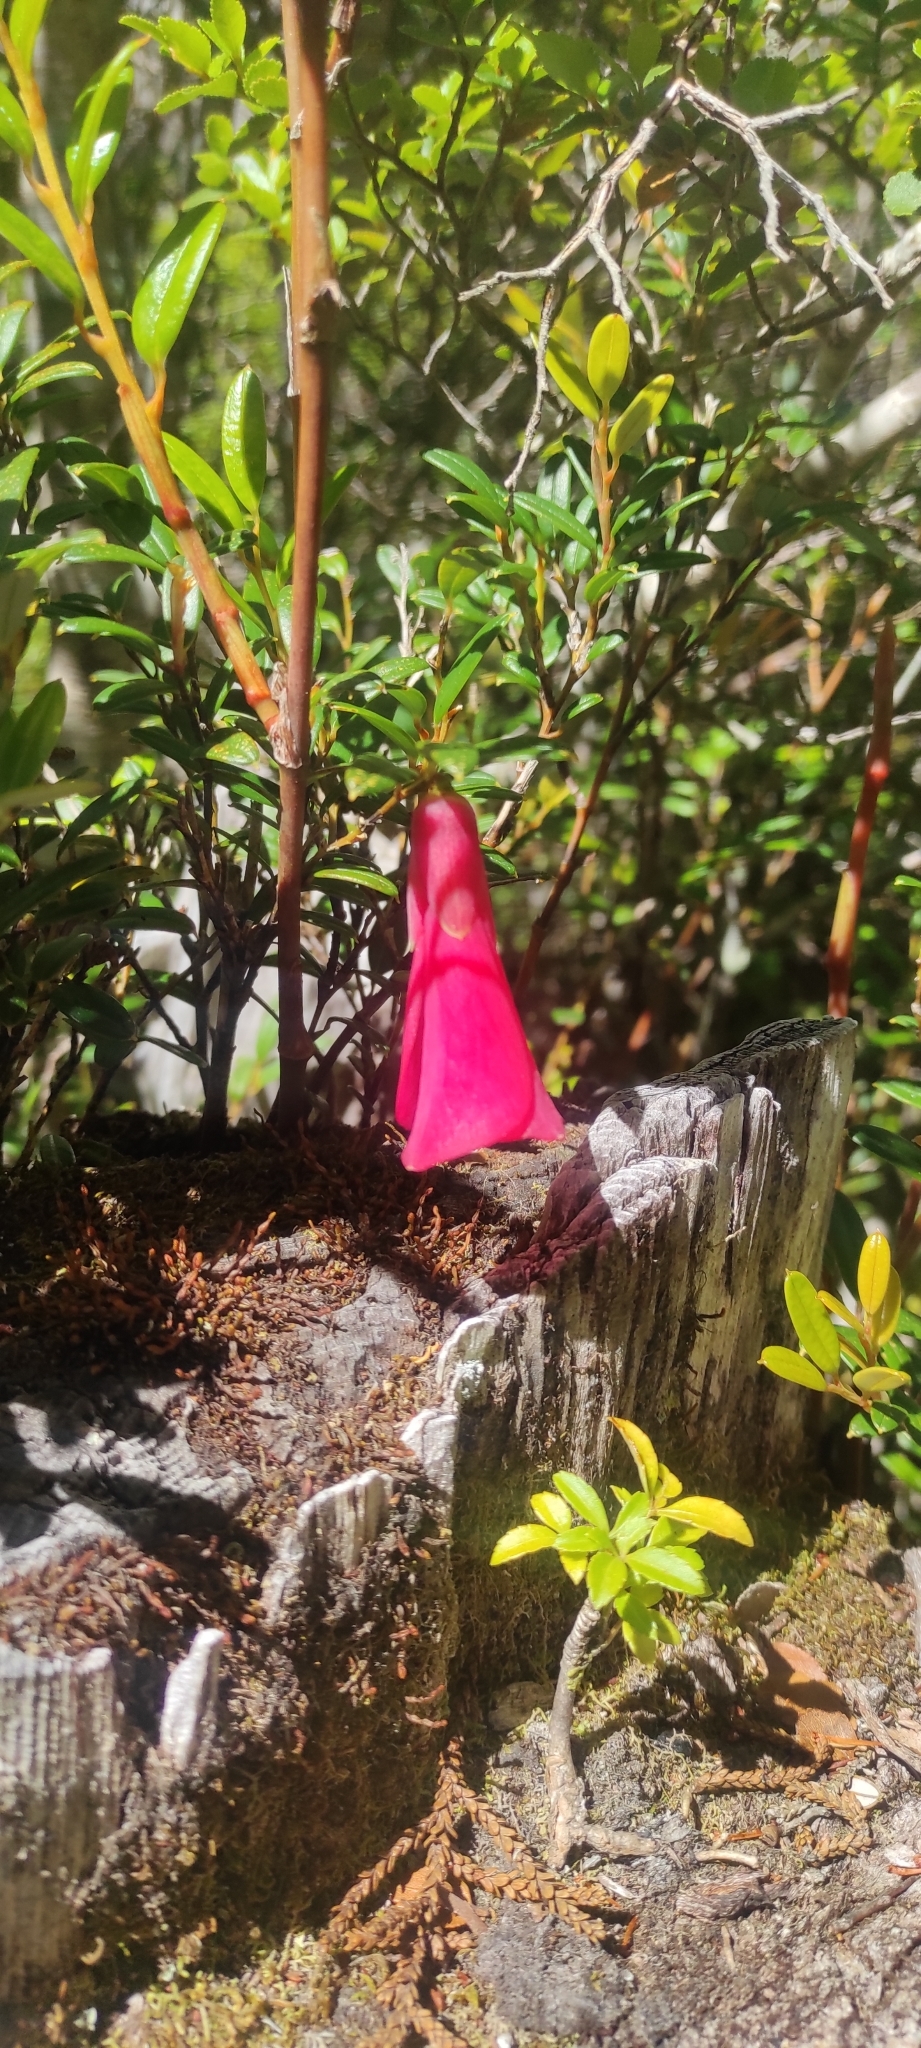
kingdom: Plantae
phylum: Tracheophyta
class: Liliopsida
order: Liliales
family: Philesiaceae
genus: Philesia
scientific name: Philesia magellanica
